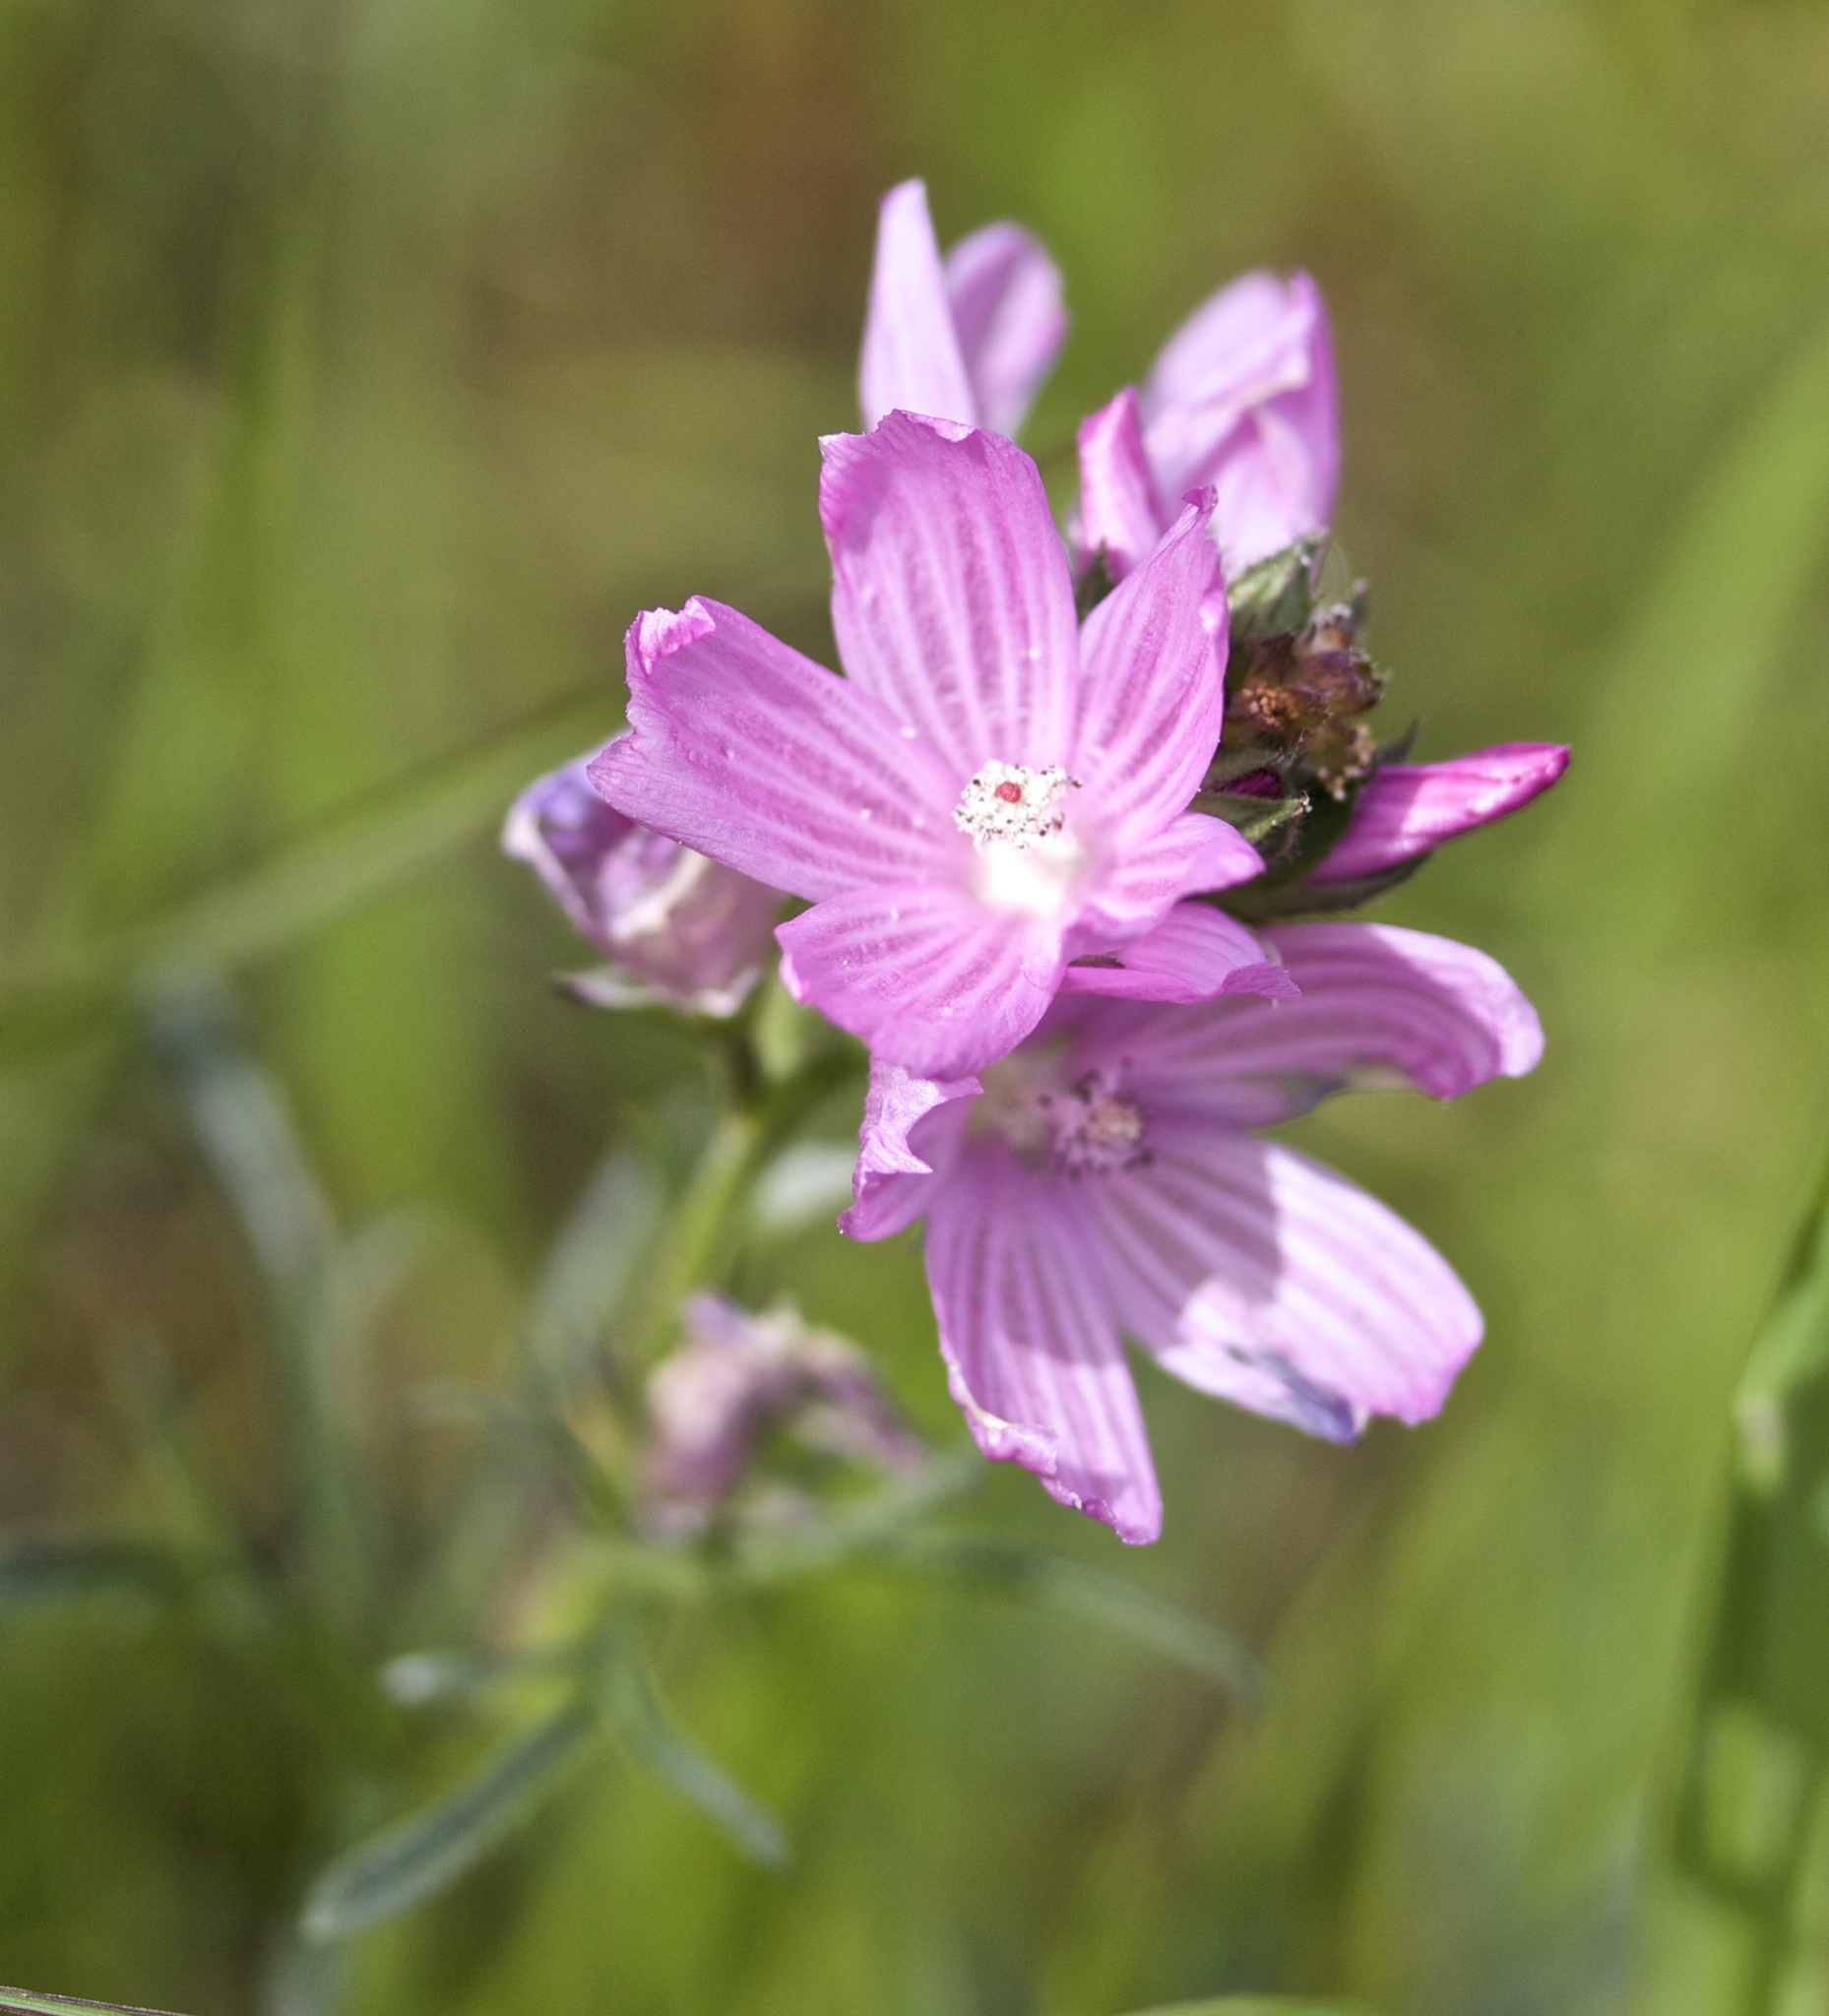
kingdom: Plantae
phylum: Tracheophyta
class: Magnoliopsida
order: Malvales
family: Malvaceae
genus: Sidalcea
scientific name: Sidalcea malviflora
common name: Greek mallow
